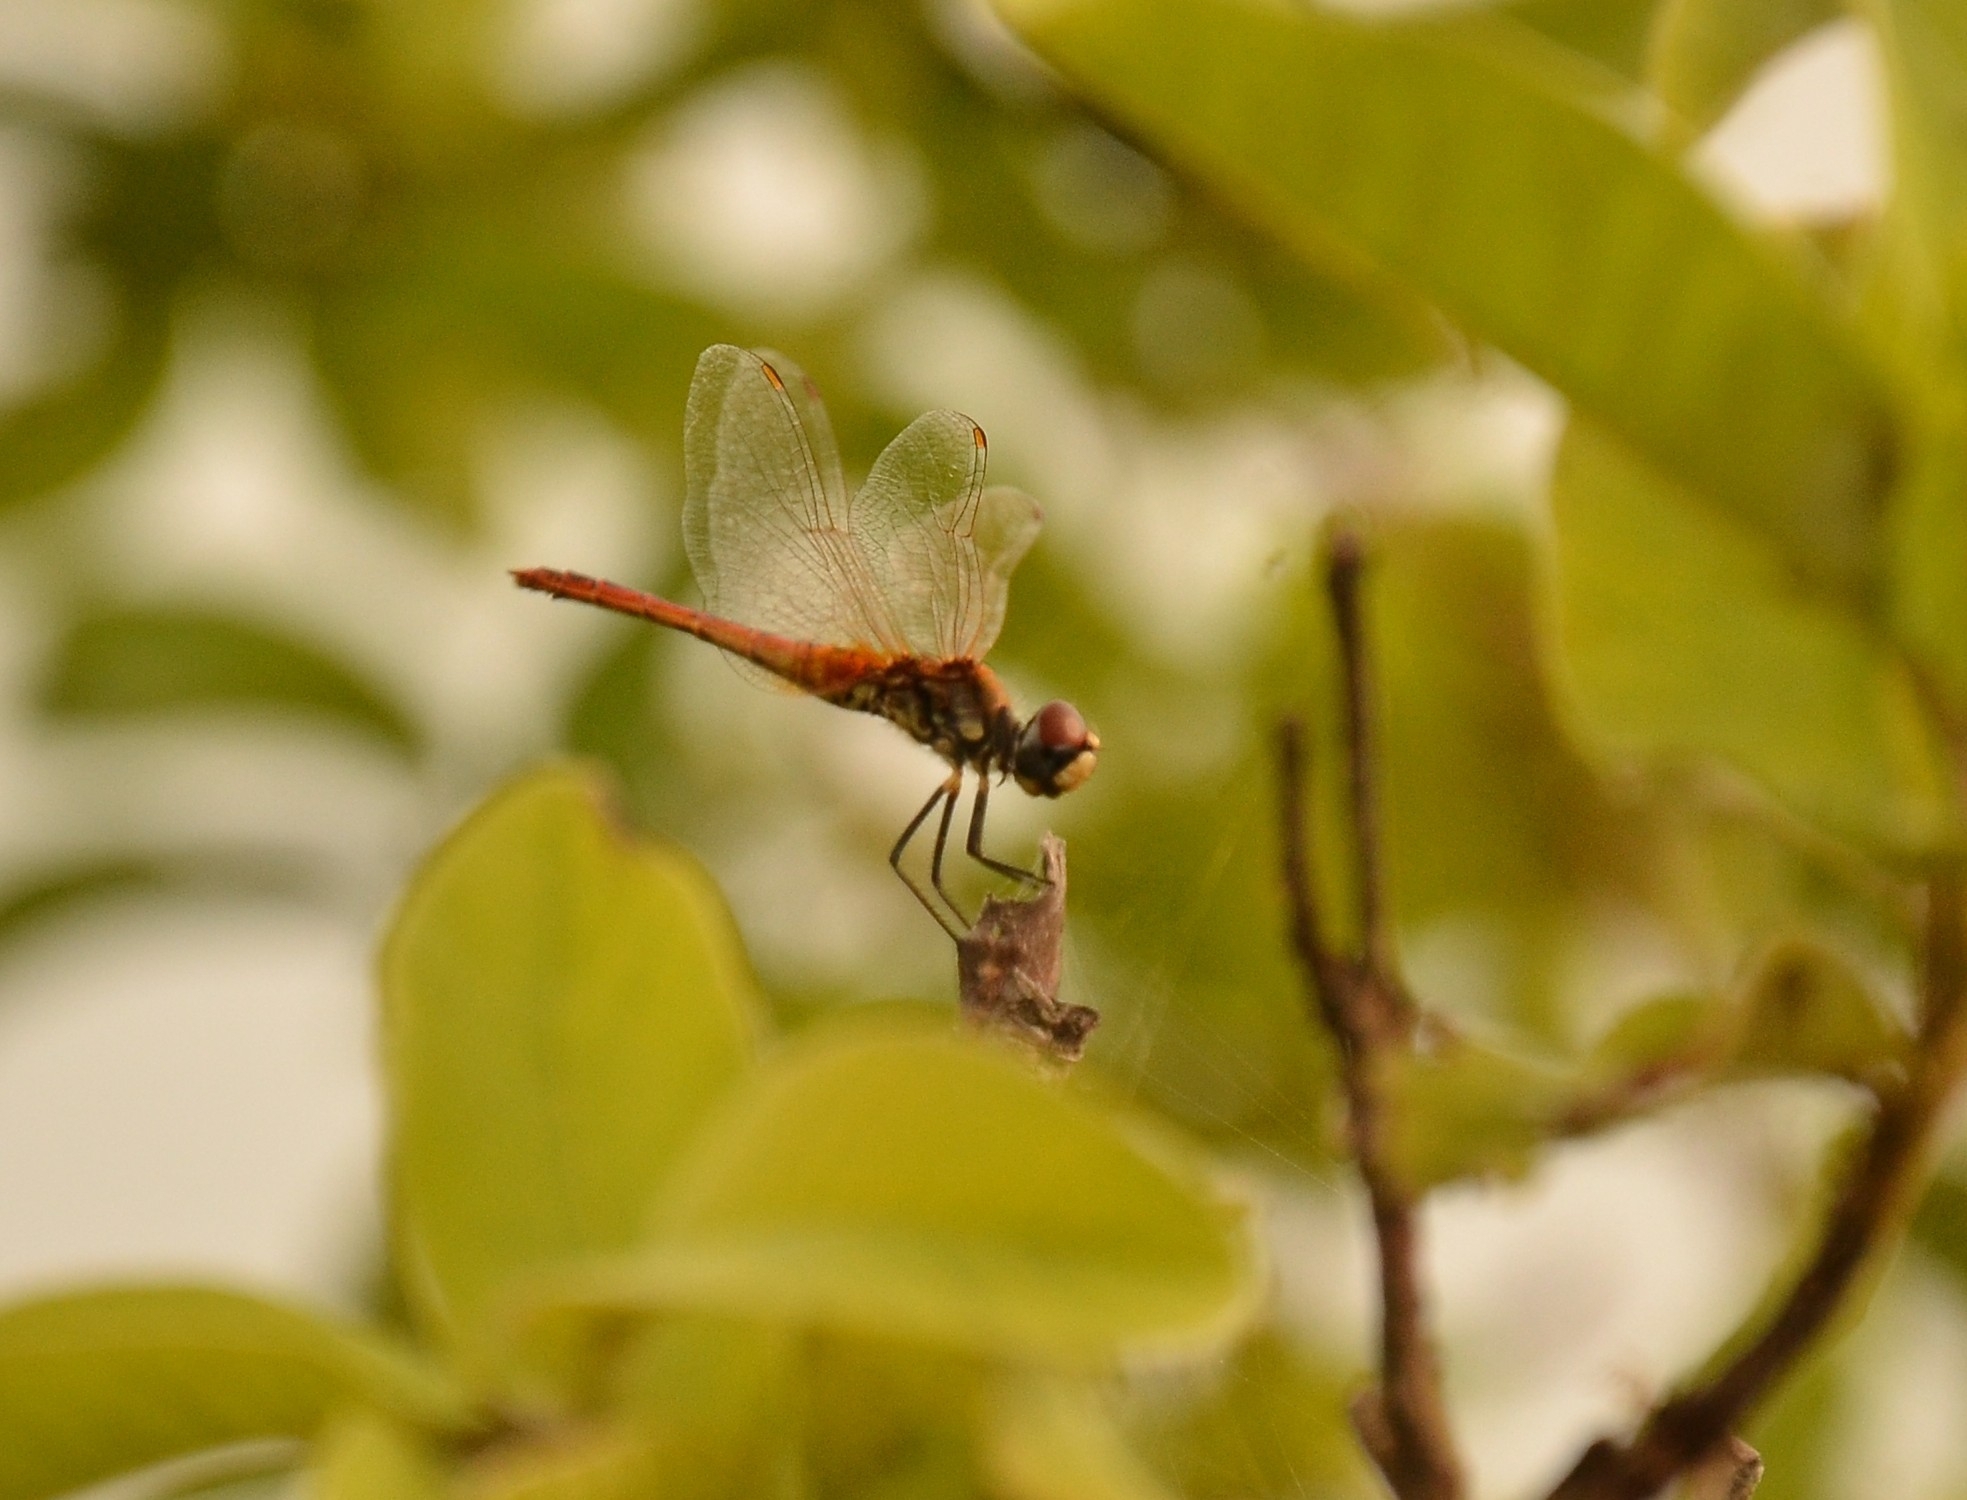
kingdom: Animalia
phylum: Arthropoda
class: Insecta
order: Odonata
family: Libellulidae
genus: Macrodiplax
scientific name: Macrodiplax cora
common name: Coastal glider
